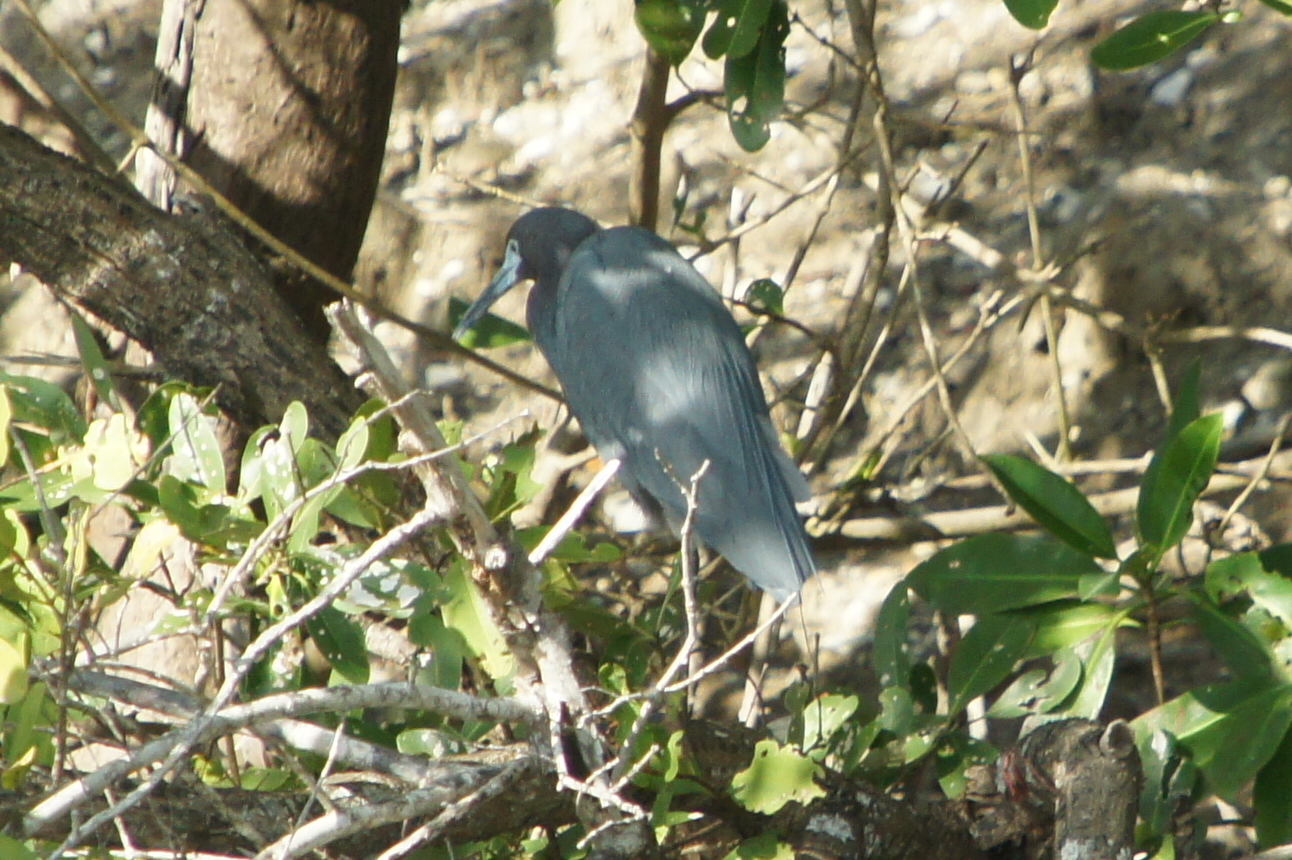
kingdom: Animalia
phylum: Chordata
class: Aves
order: Pelecaniformes
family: Ardeidae
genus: Egretta
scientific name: Egretta caerulea
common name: Little blue heron
